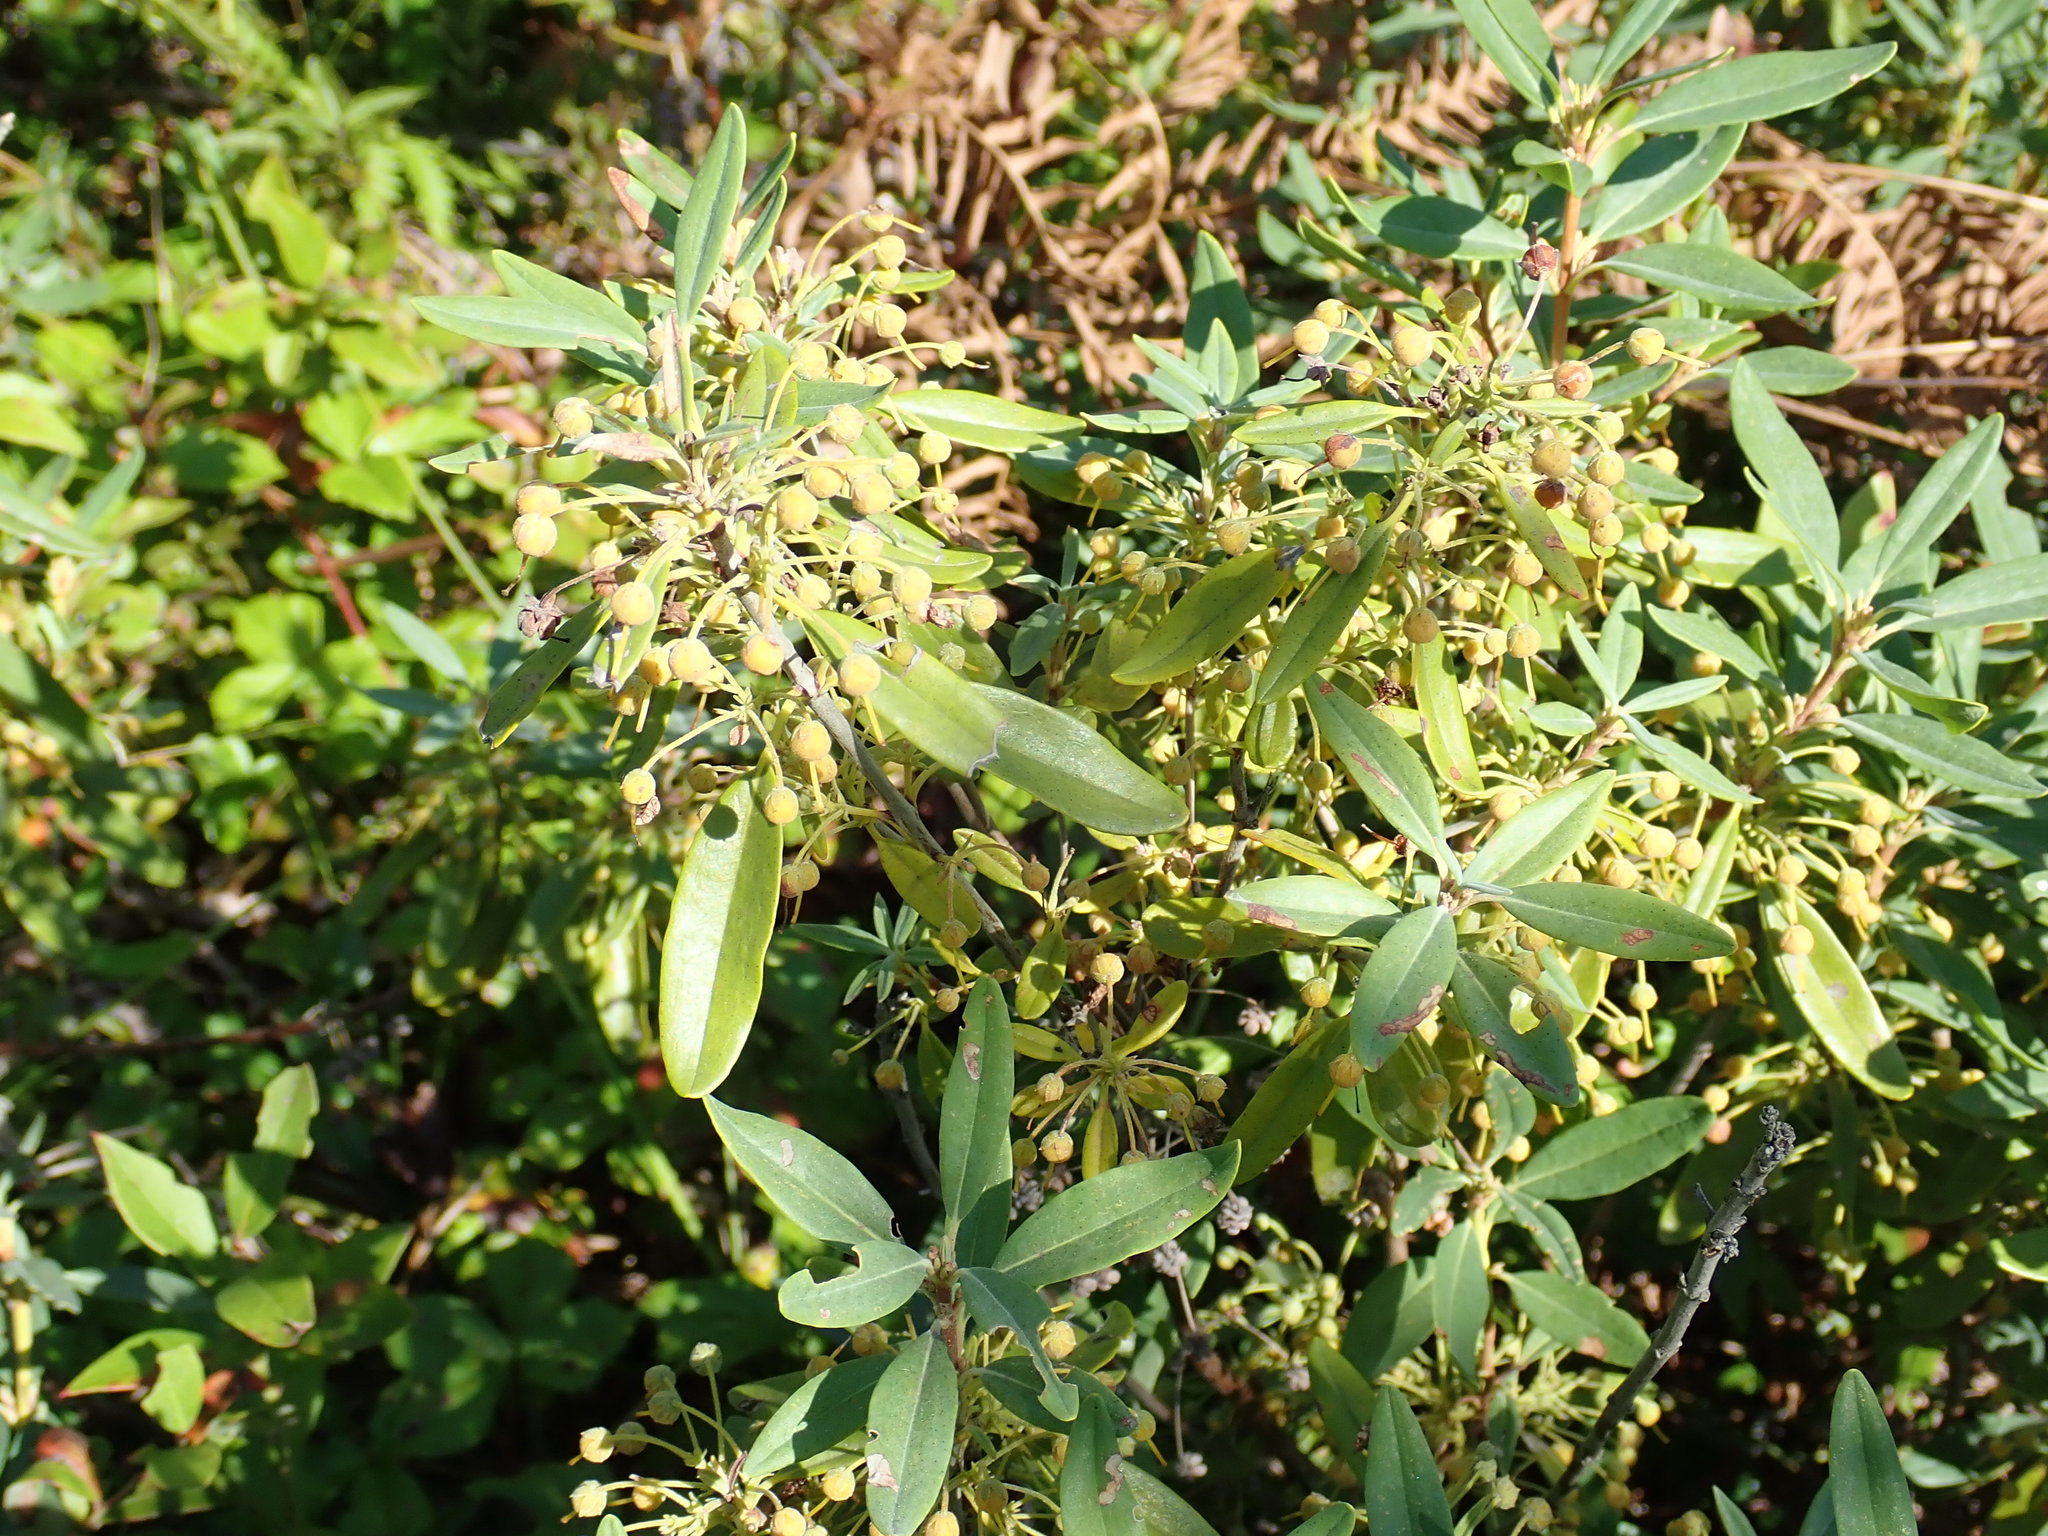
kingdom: Plantae
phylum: Tracheophyta
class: Magnoliopsida
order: Ericales
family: Ericaceae
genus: Kalmia
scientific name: Kalmia angustifolia
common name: Sheep-laurel
